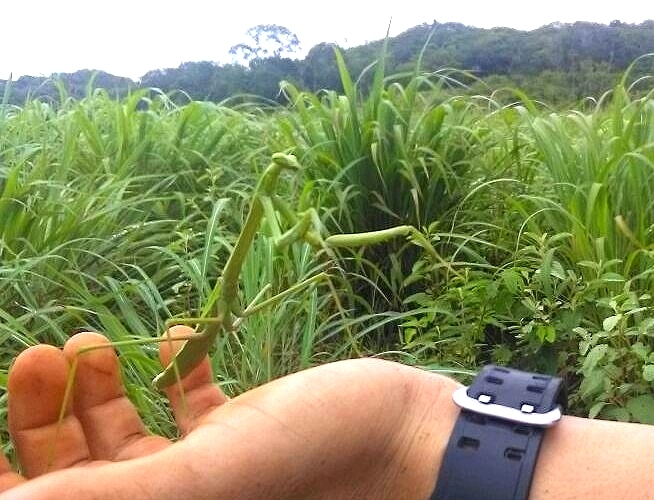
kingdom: Animalia
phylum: Arthropoda
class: Insecta
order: Mantodea
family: Mantidae
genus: Phasmomantis
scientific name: Phasmomantis sumichrasti
